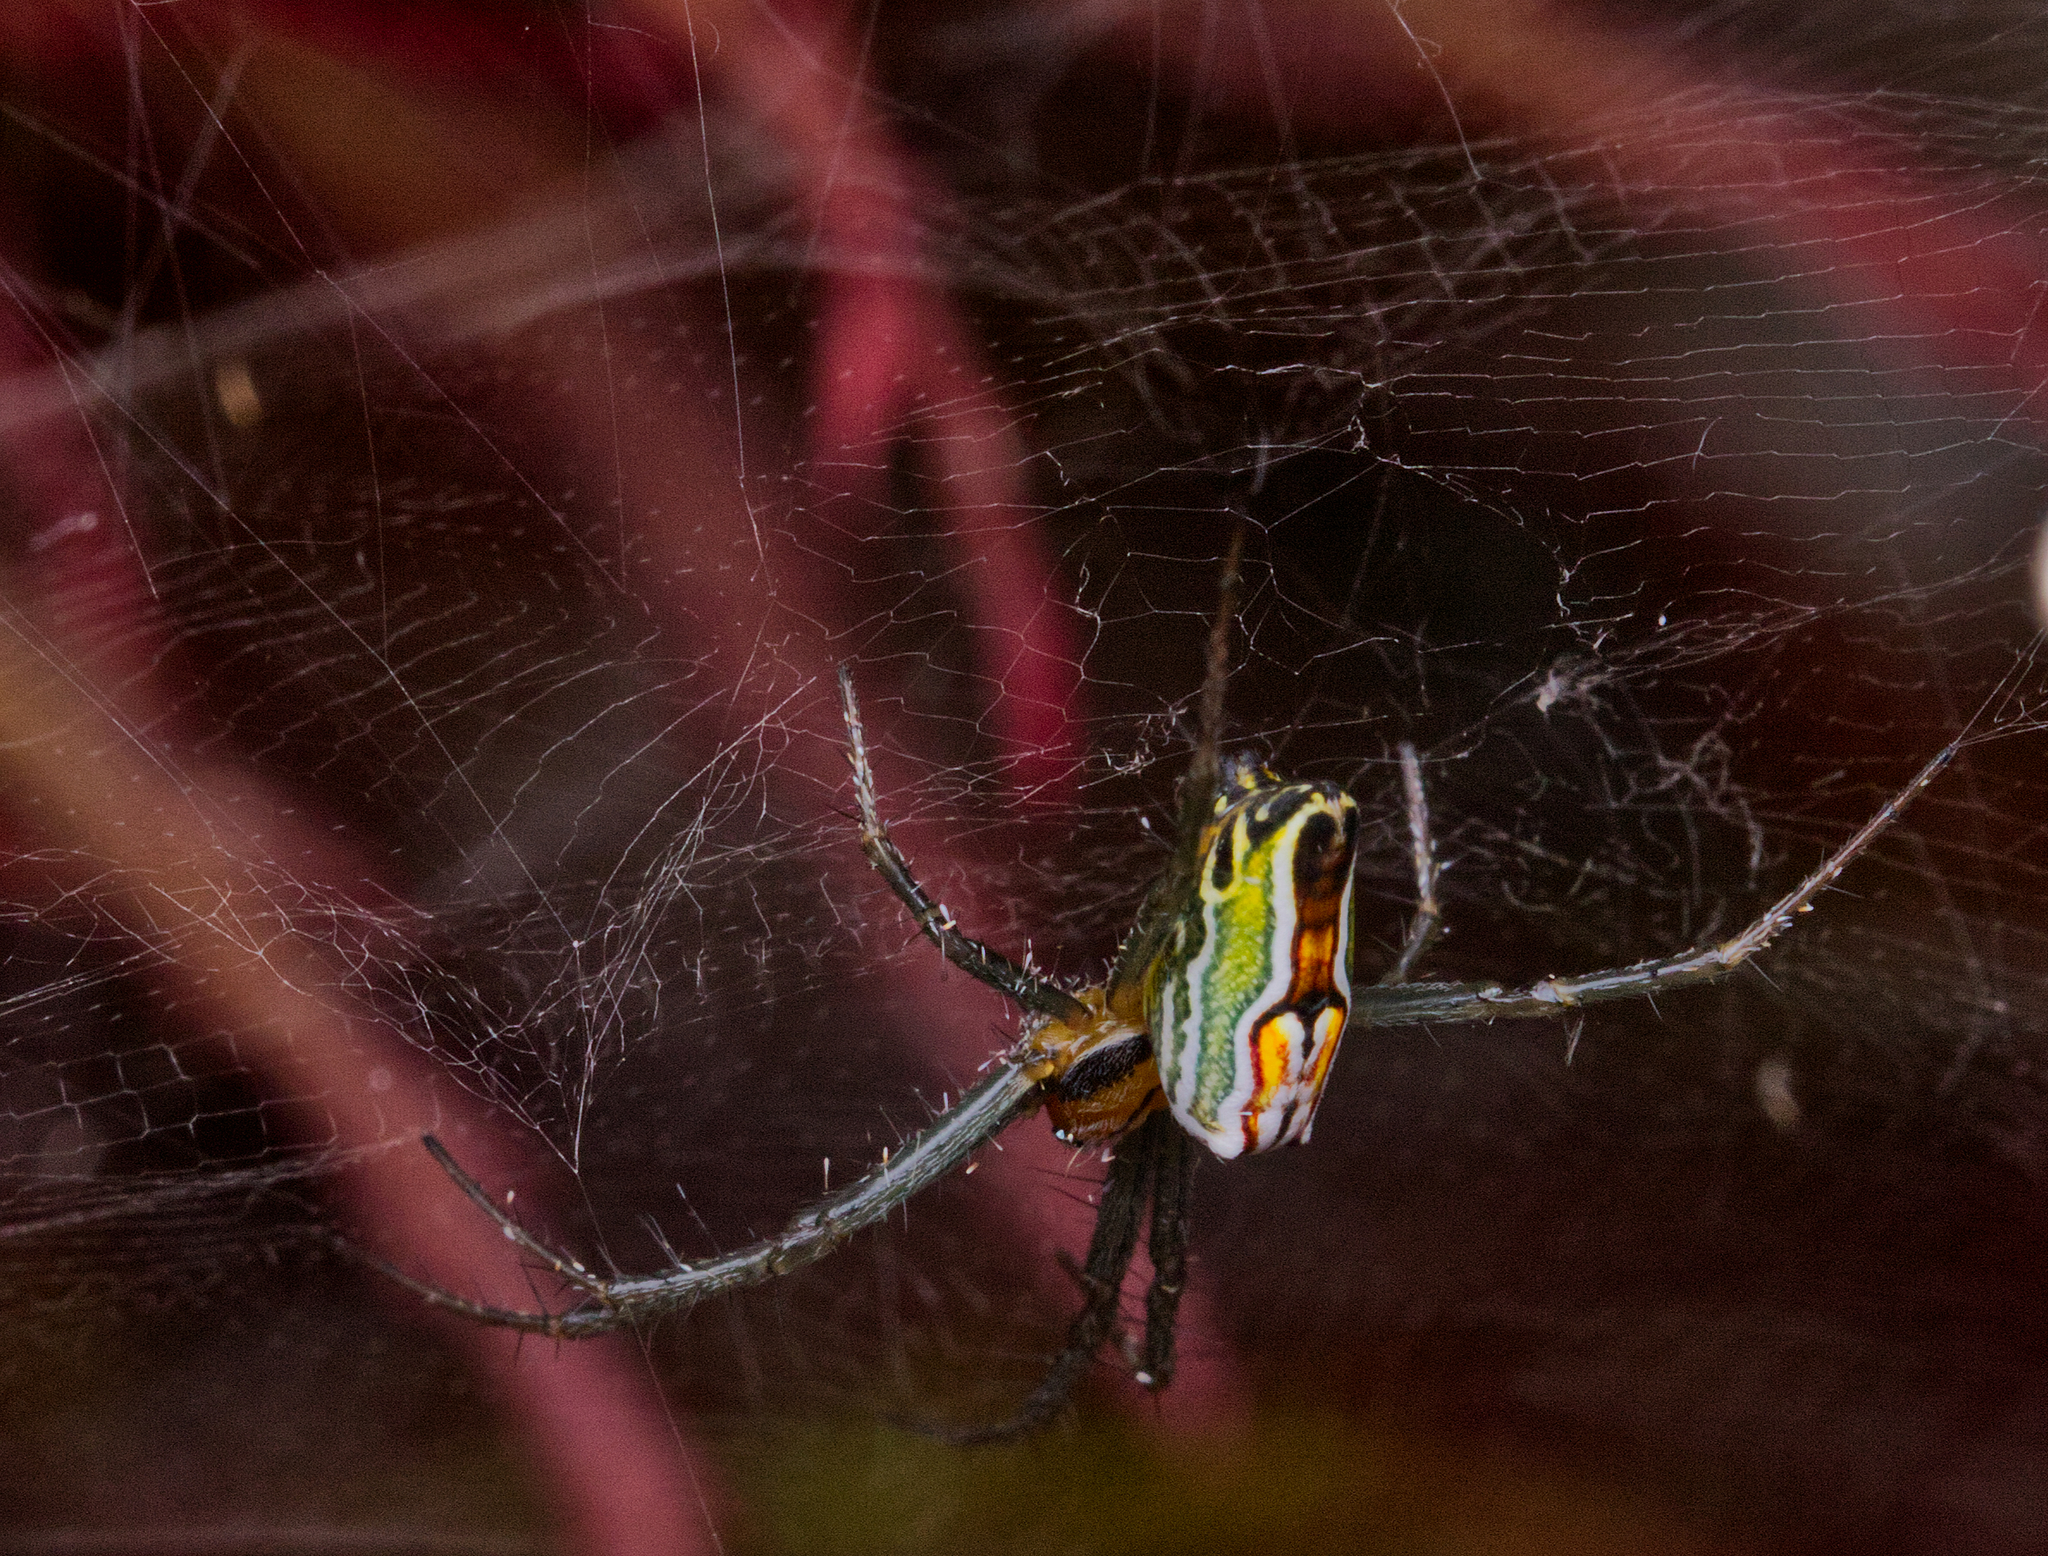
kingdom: Animalia
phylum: Arthropoda
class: Arachnida
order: Araneae
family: Araneidae
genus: Mecynogea
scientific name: Mecynogea lemniscata
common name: Orb weavers
